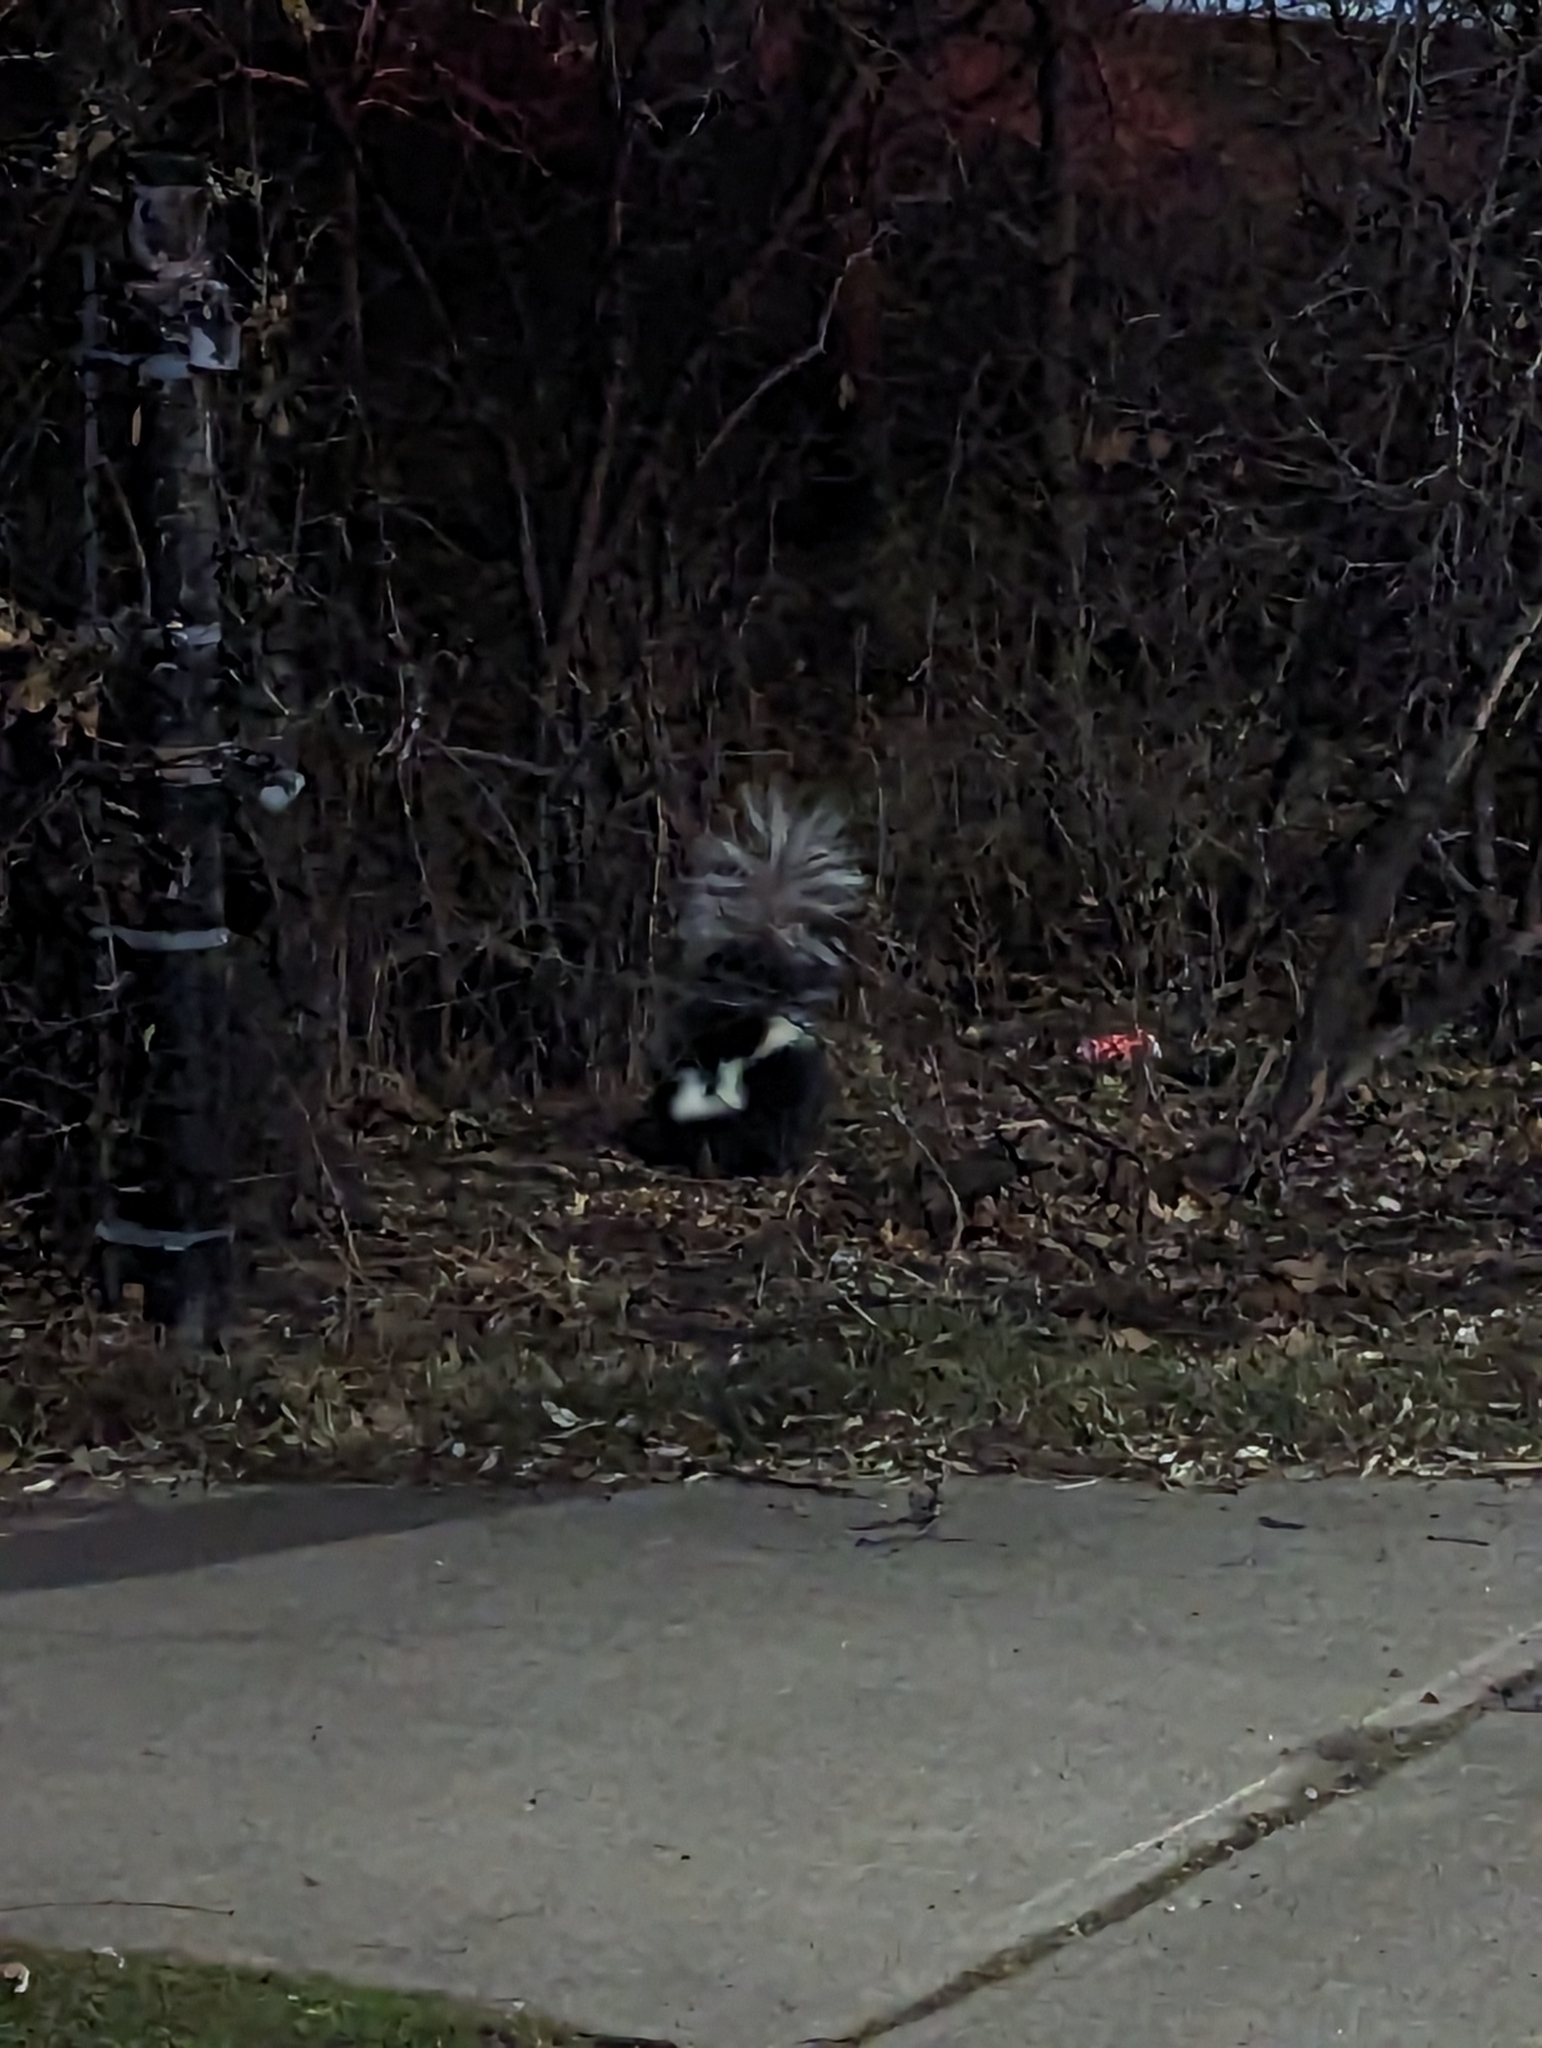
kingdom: Animalia
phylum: Chordata
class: Mammalia
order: Carnivora
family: Mephitidae
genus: Mephitis
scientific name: Mephitis mephitis
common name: Striped skunk
